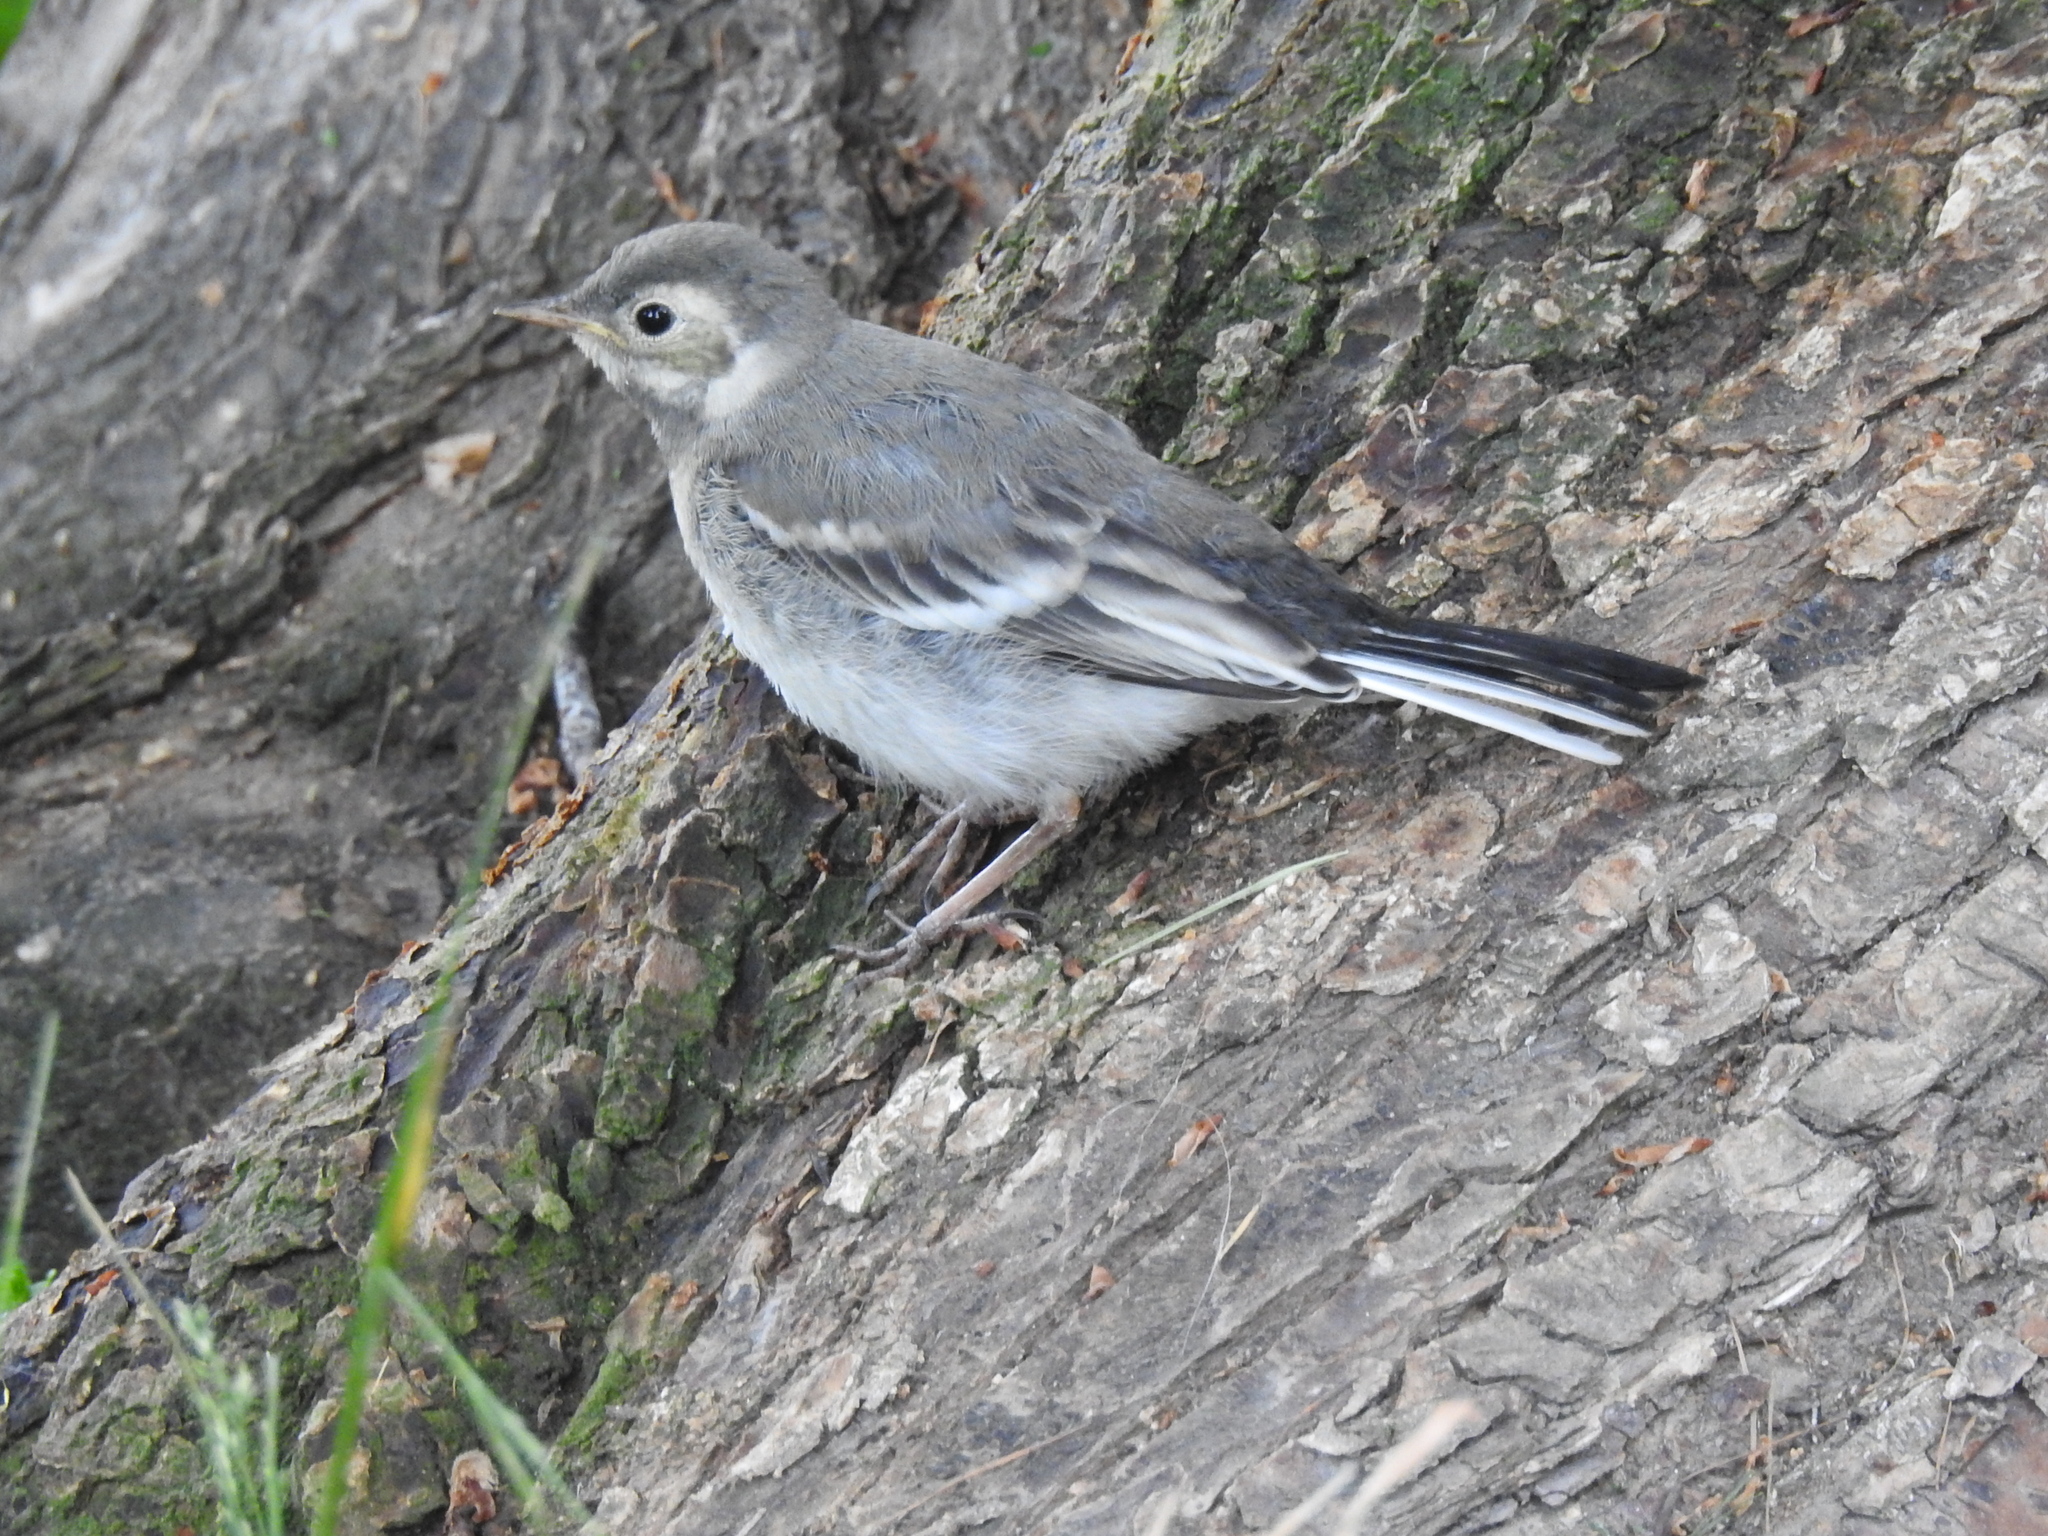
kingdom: Animalia
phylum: Chordata
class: Aves
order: Passeriformes
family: Motacillidae
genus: Motacilla
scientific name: Motacilla alba
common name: White wagtail
